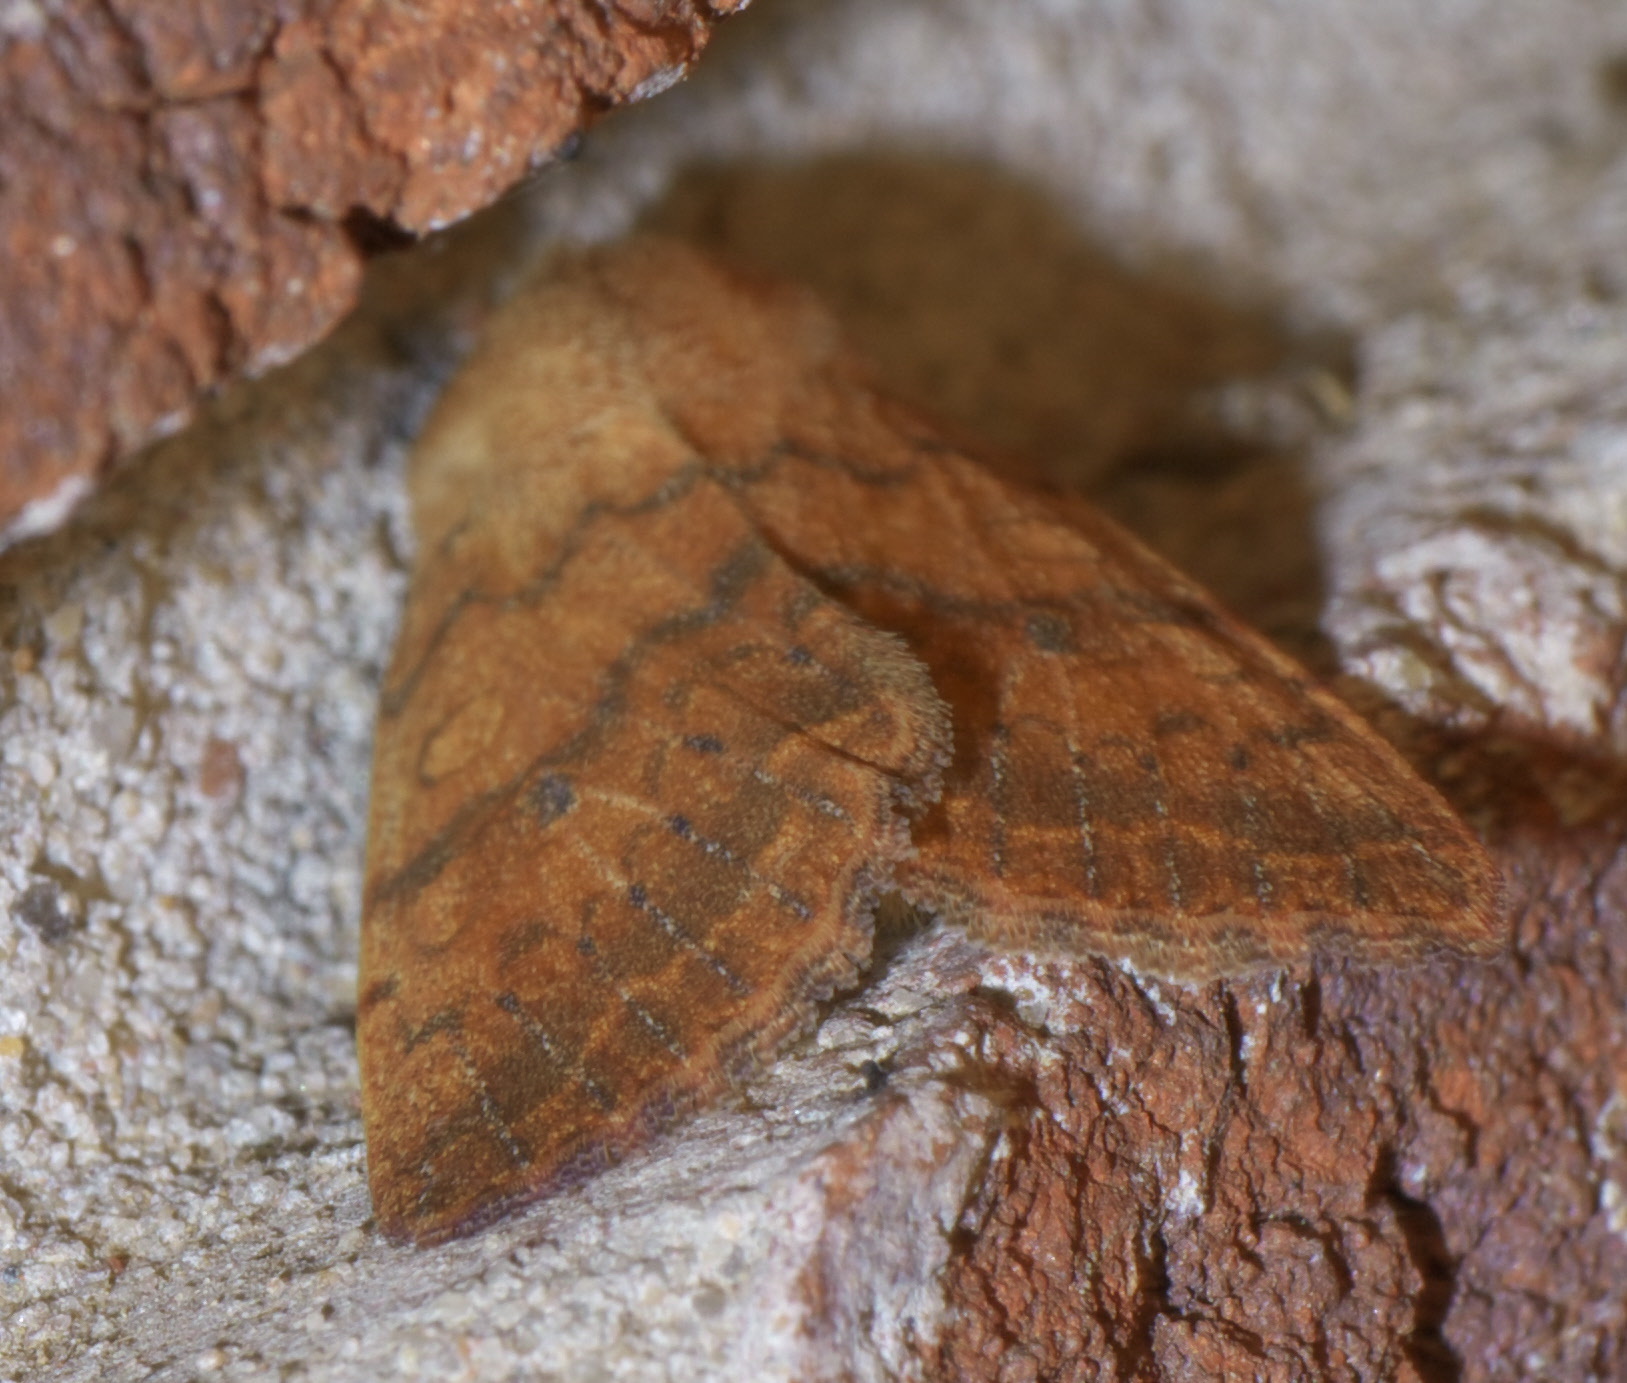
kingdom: Animalia
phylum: Arthropoda
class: Insecta
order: Lepidoptera
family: Noctuidae
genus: Agrochola
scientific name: Agrochola bicolorago
